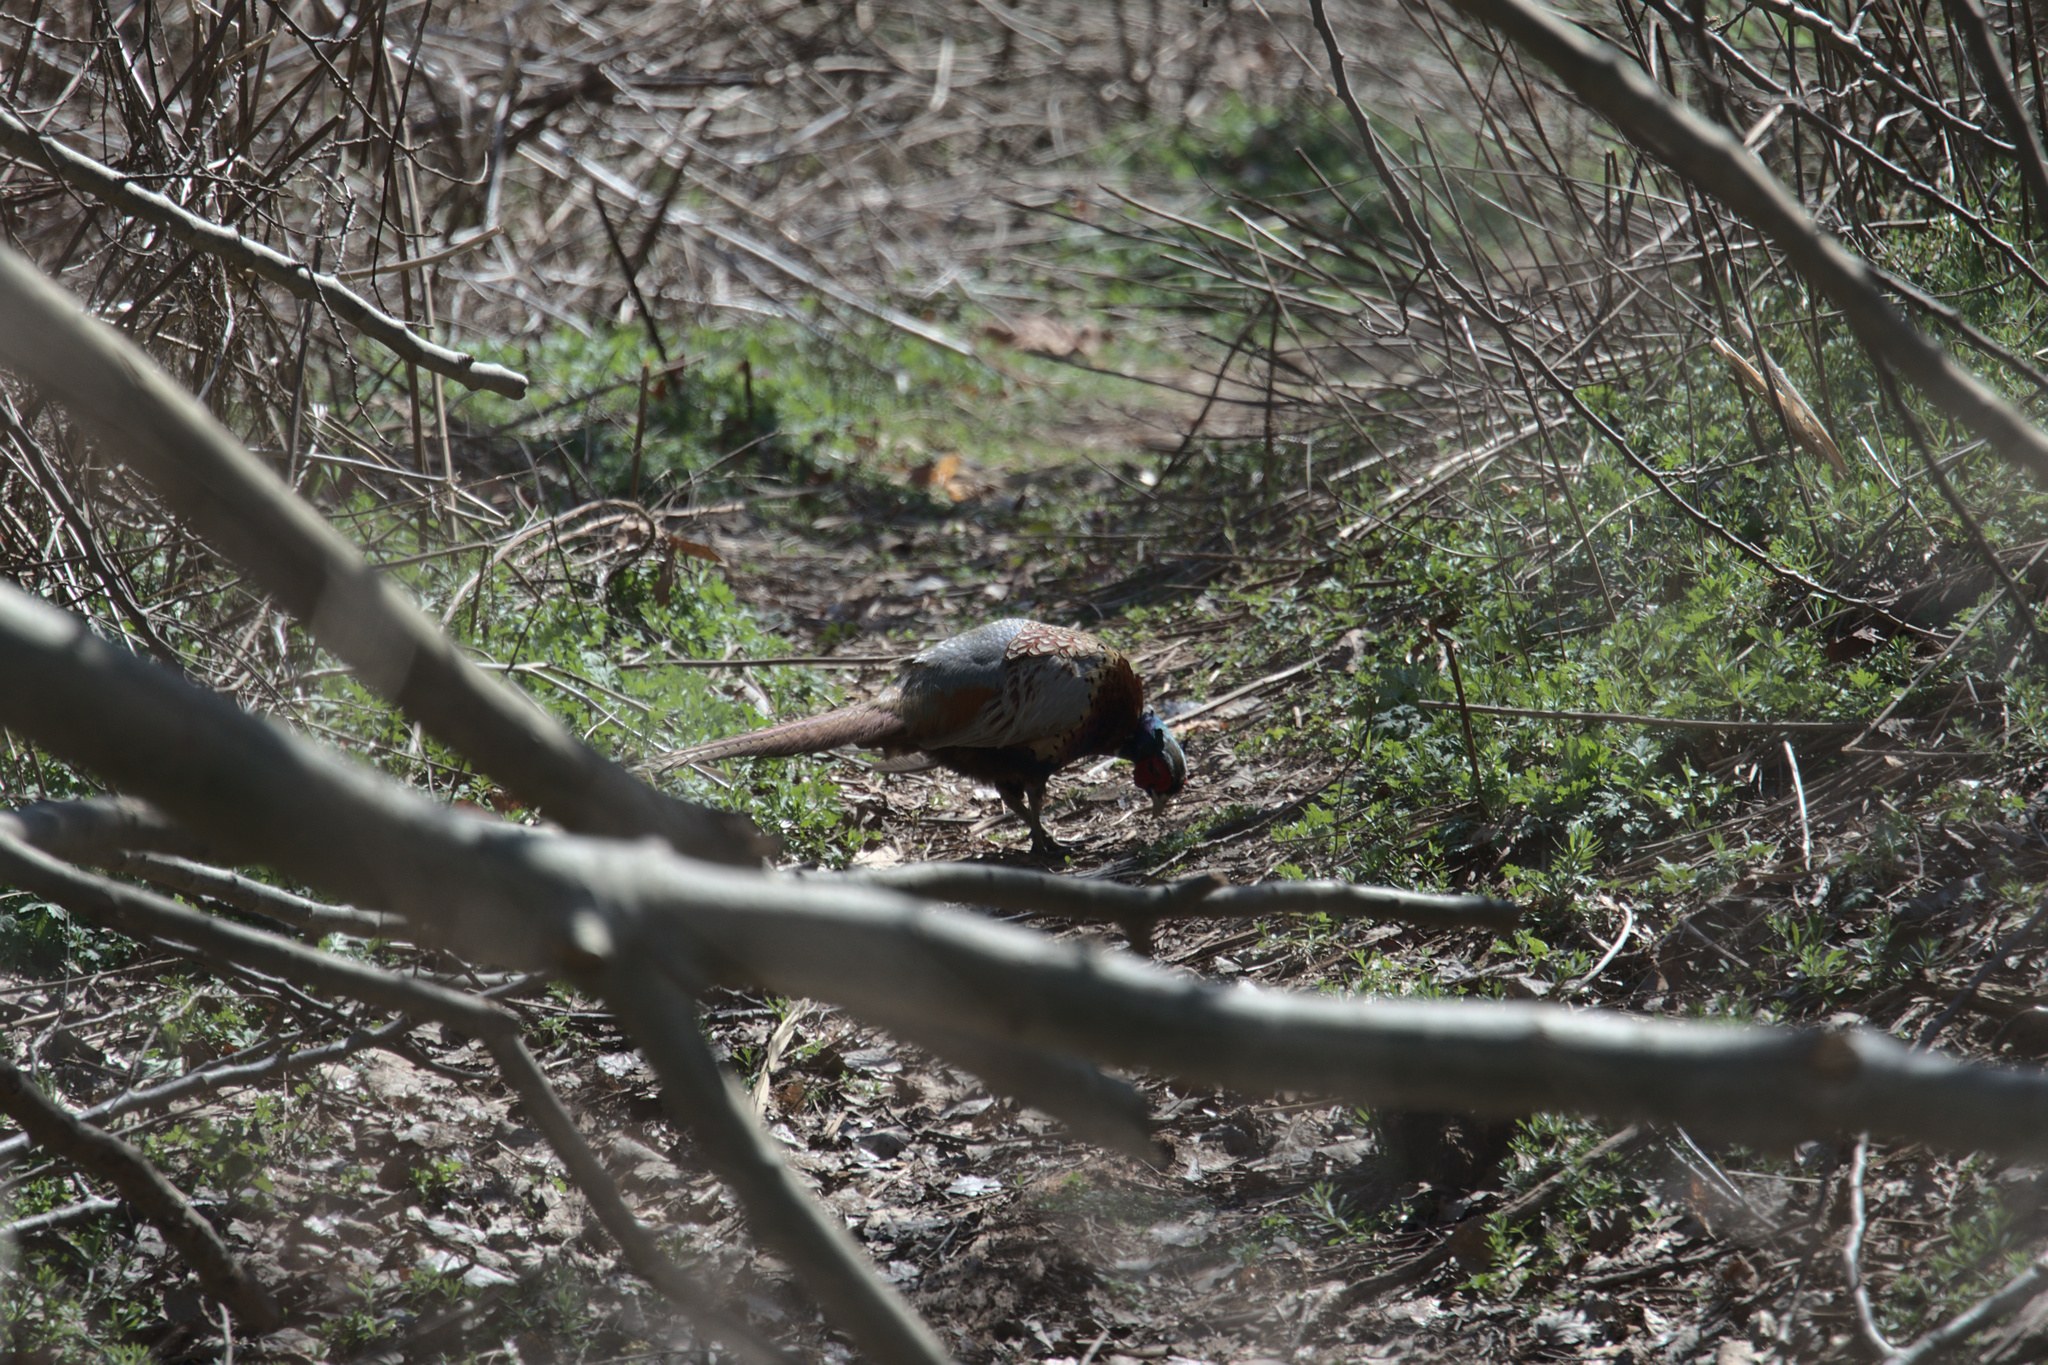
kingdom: Animalia
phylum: Chordata
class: Aves
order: Galliformes
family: Phasianidae
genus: Phasianus
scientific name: Phasianus colchicus
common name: Common pheasant
